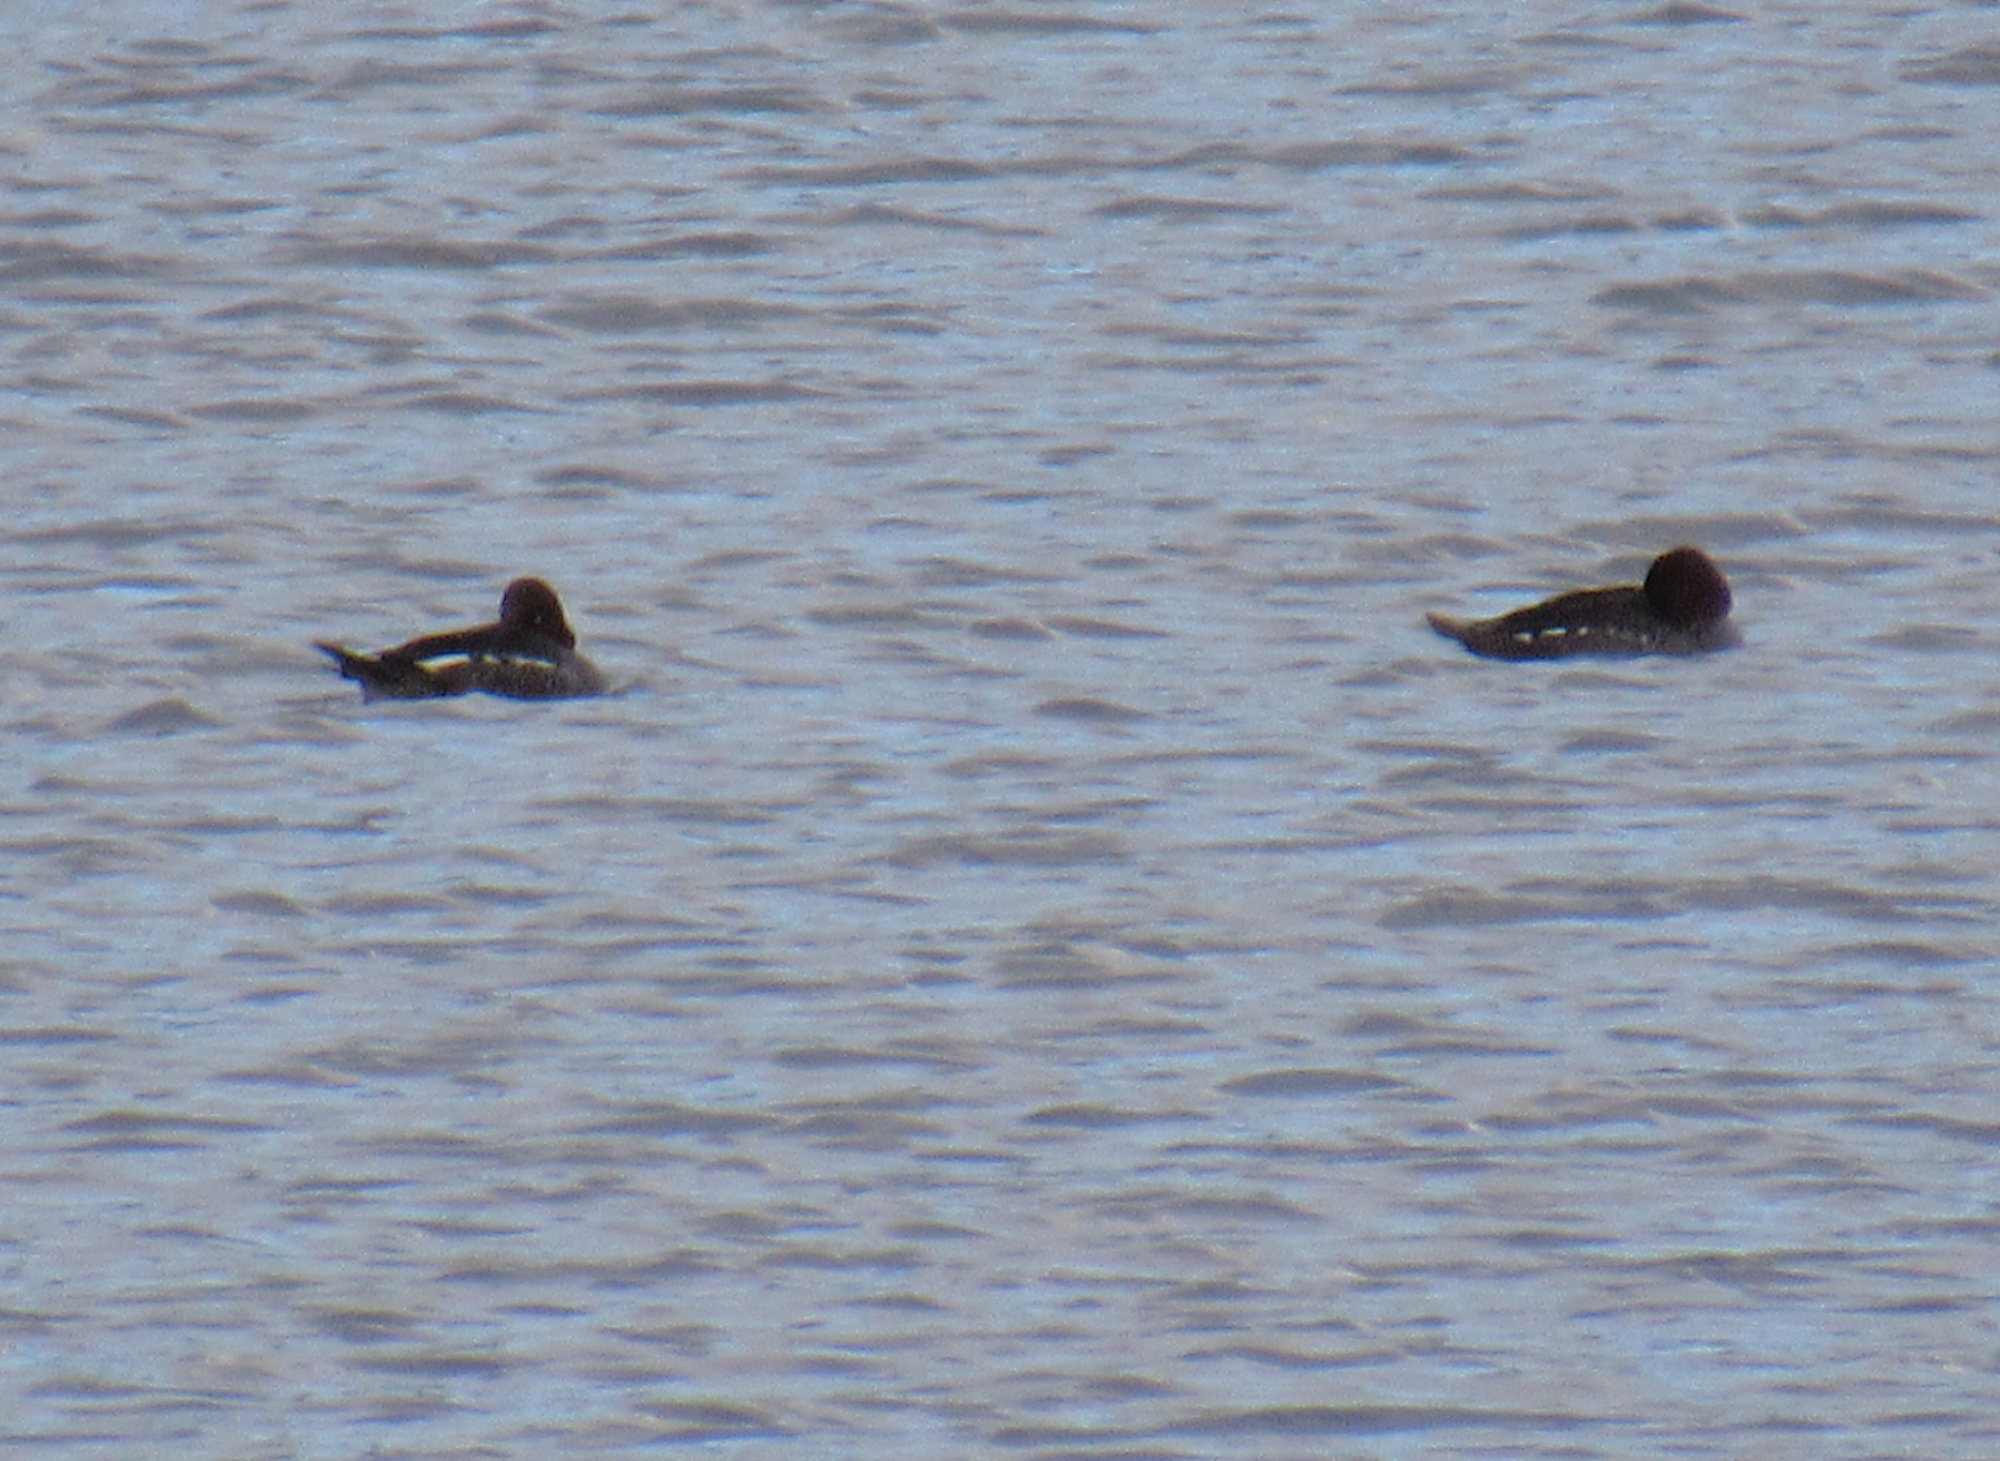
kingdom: Animalia
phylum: Chordata
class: Aves
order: Anseriformes
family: Anatidae
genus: Bucephala
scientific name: Bucephala clangula
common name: Common goldeneye
